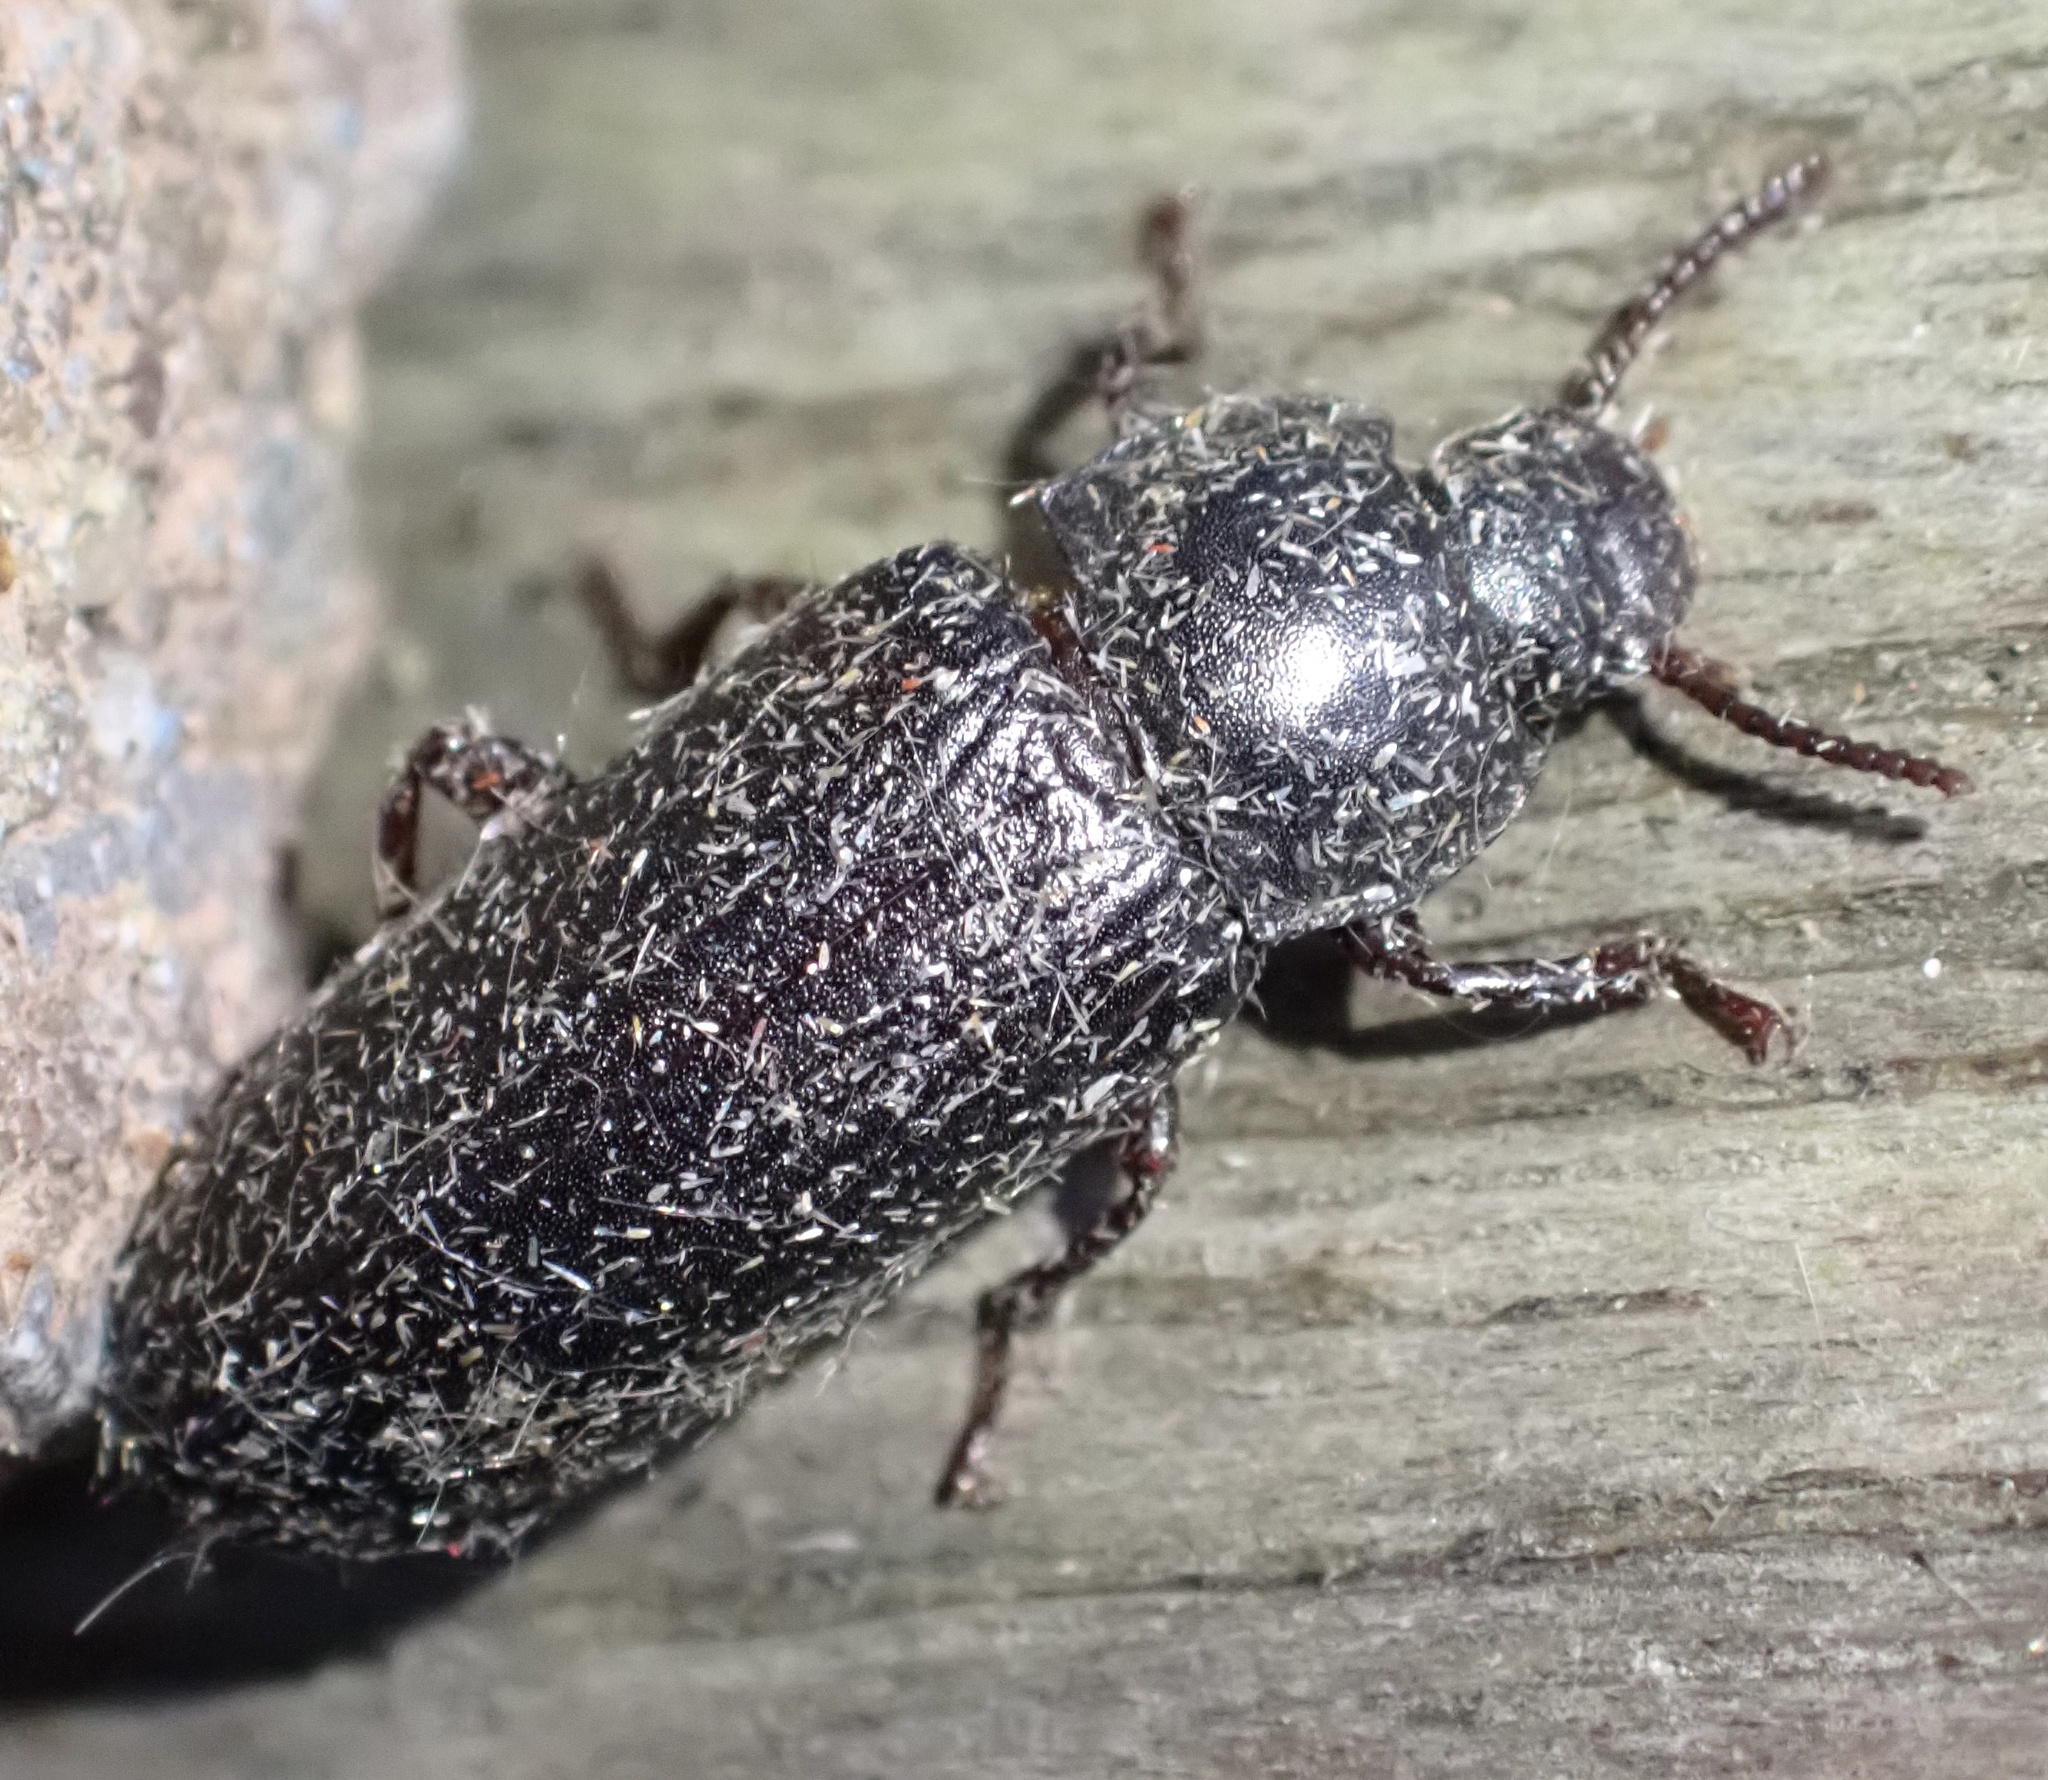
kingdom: Animalia
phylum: Arthropoda
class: Insecta
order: Coleoptera
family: Tenebrionidae
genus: Tenebrio
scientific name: Tenebrio molitor
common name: Hardback beetle
